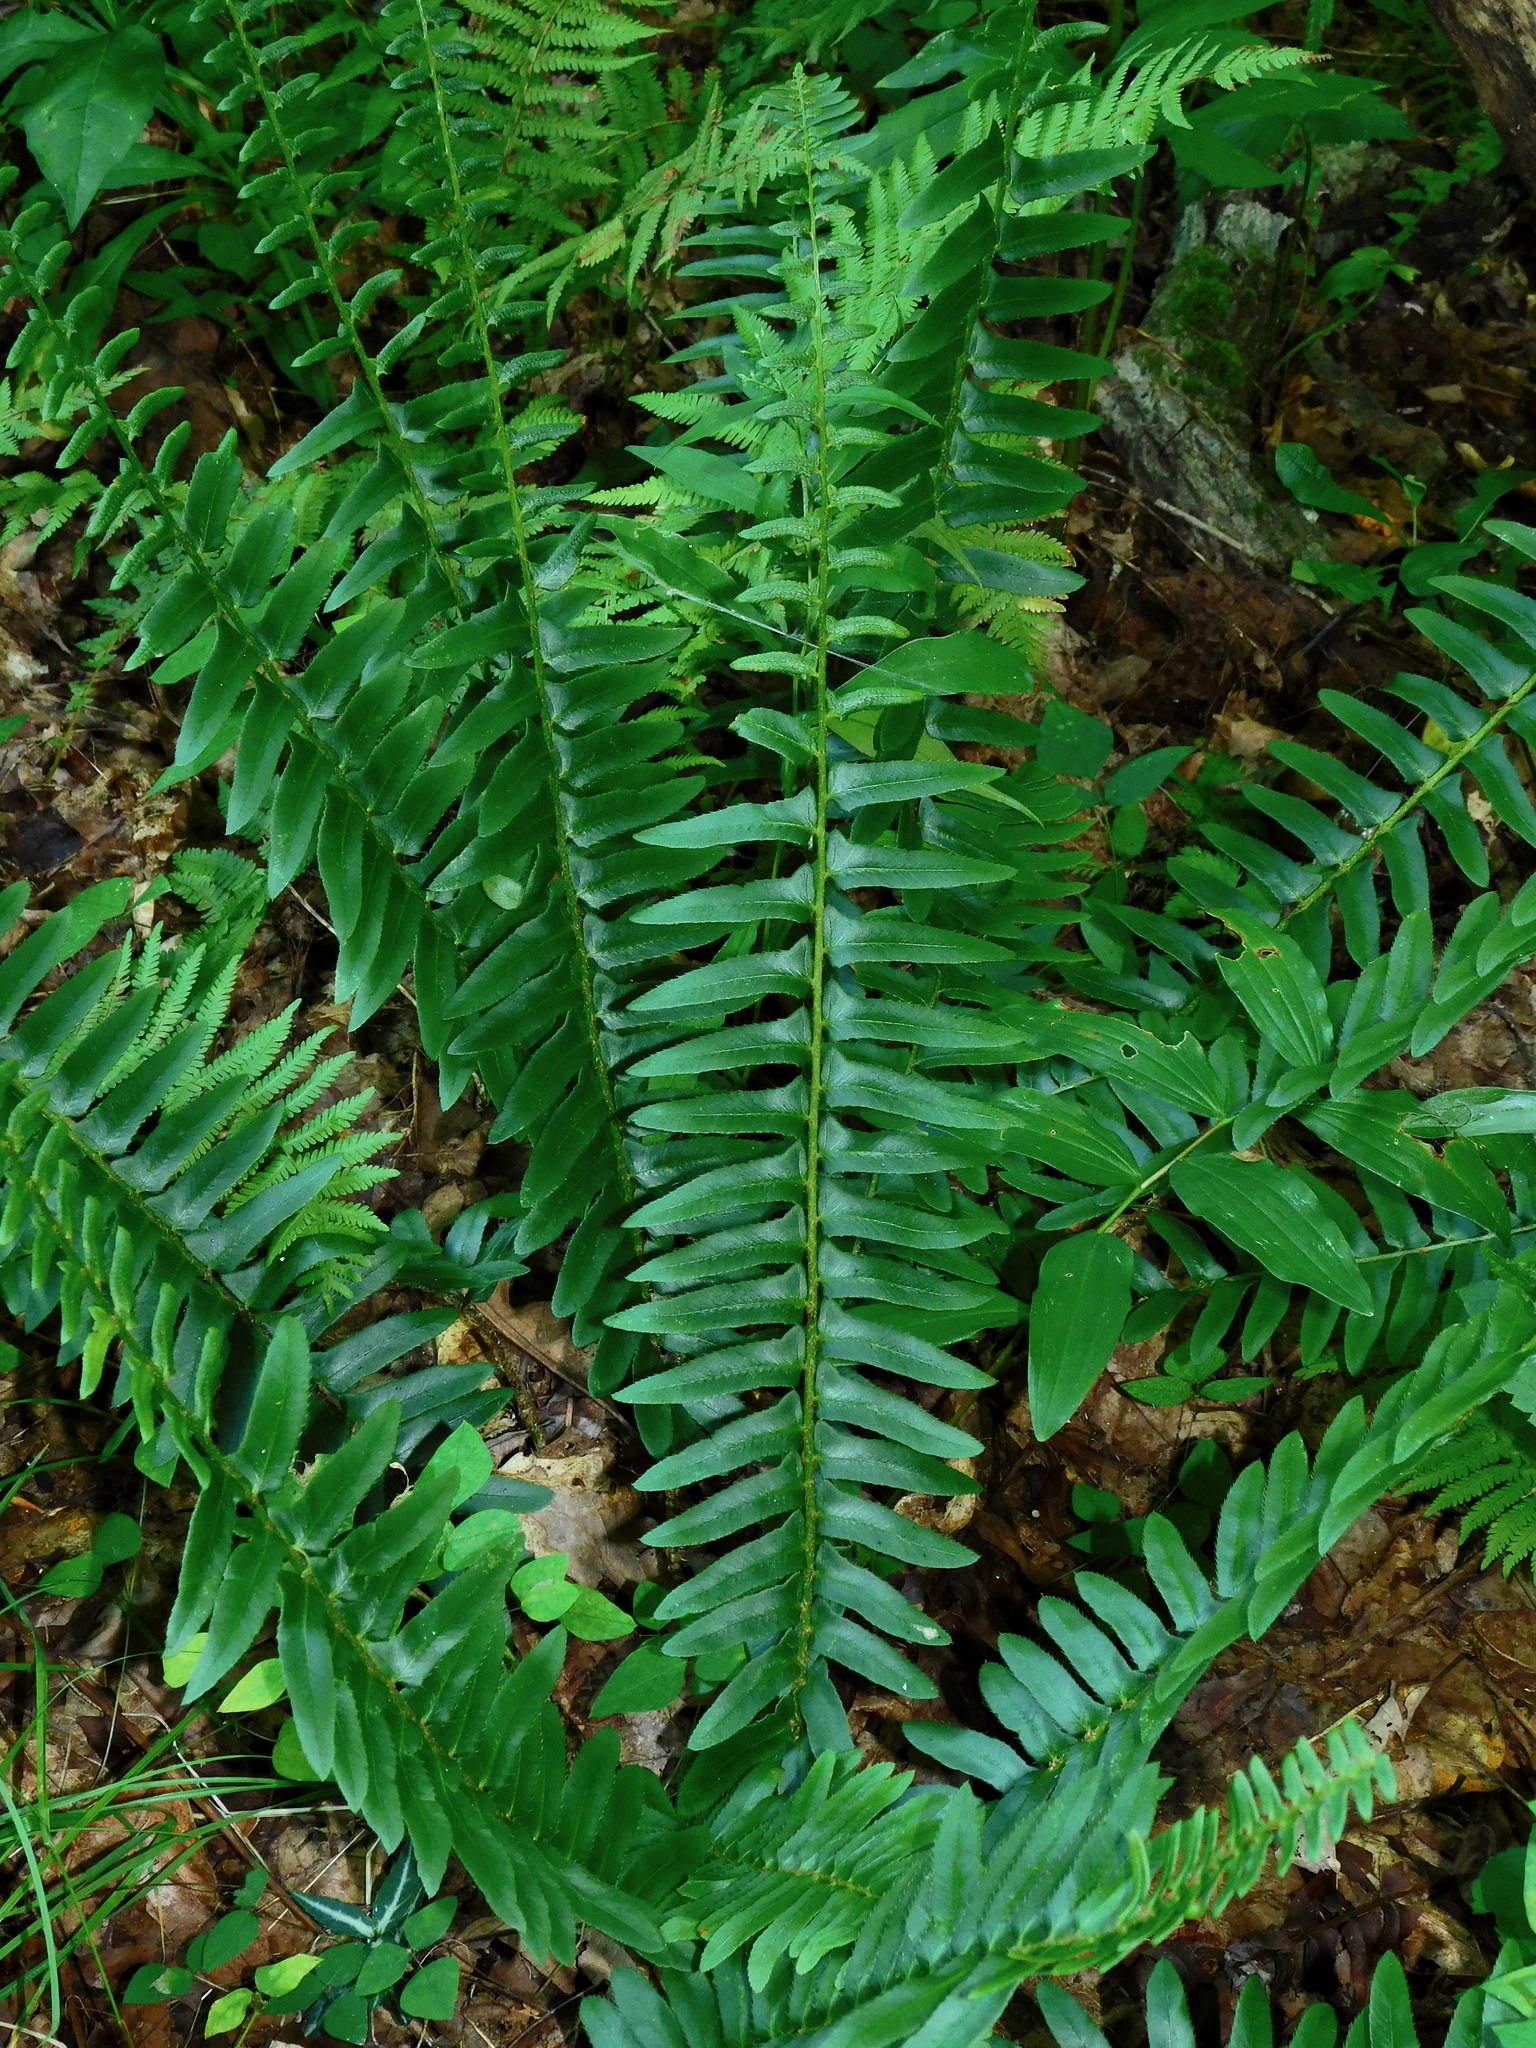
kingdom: Plantae
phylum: Tracheophyta
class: Polypodiopsida
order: Polypodiales
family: Dryopteridaceae
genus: Polystichum
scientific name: Polystichum acrostichoides
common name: Christmas fern
